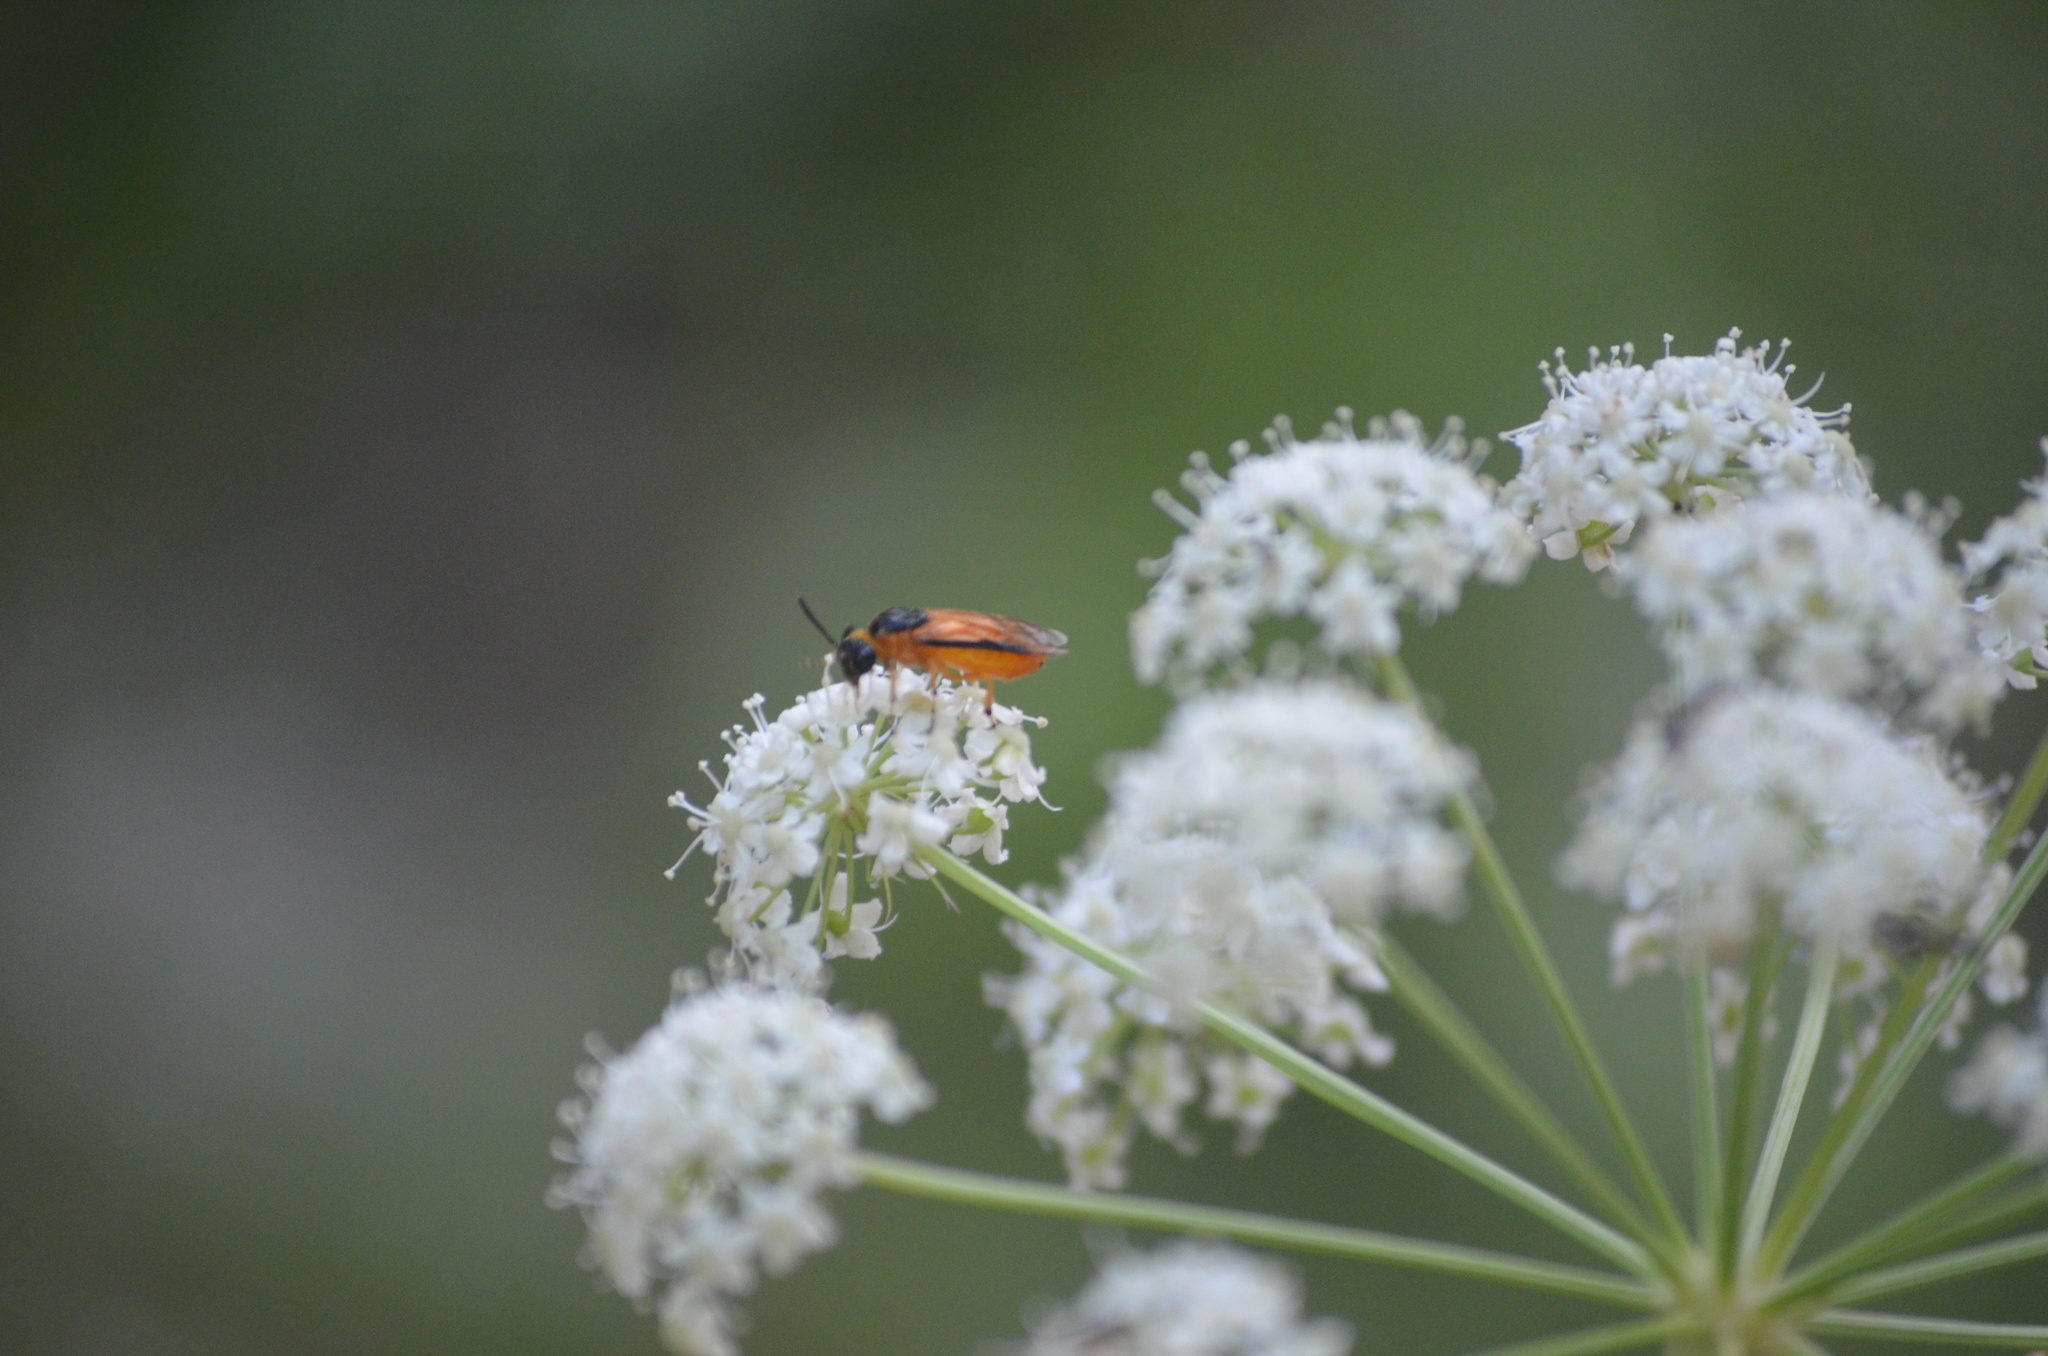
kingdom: Animalia
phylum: Arthropoda
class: Insecta
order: Hymenoptera
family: Argidae
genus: Arge
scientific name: Arge ochropus
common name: Argid sawfly
